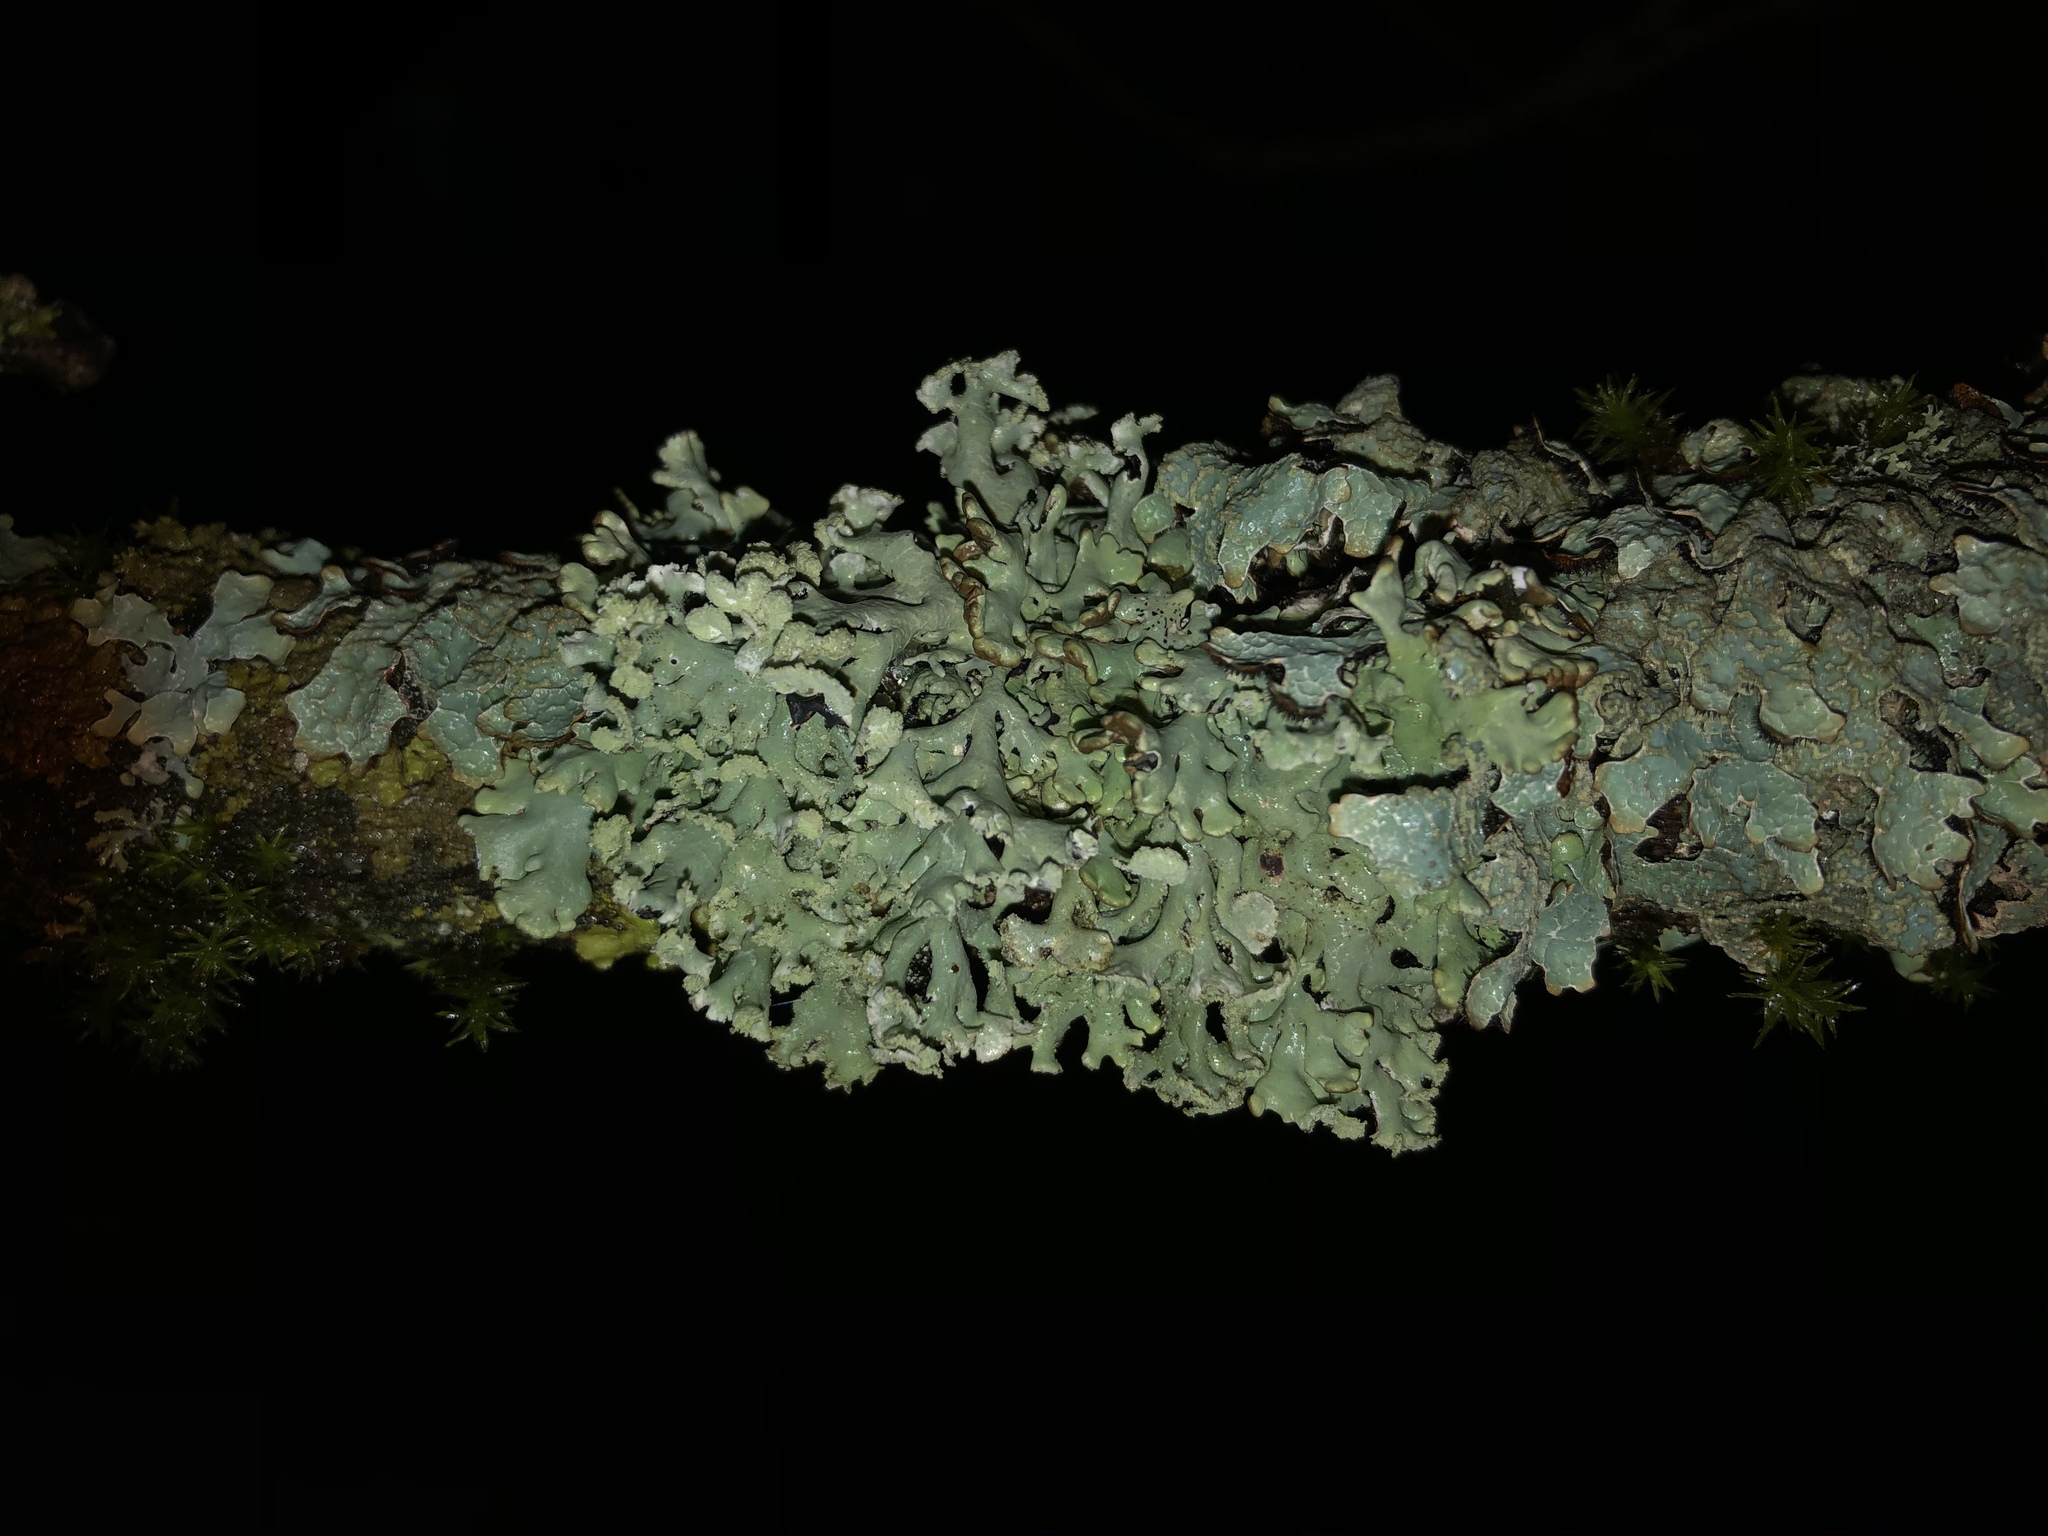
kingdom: Fungi
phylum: Ascomycota
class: Lecanoromycetes
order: Lecanorales
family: Parmeliaceae
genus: Hypogymnia
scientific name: Hypogymnia physodes
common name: Dark crottle
